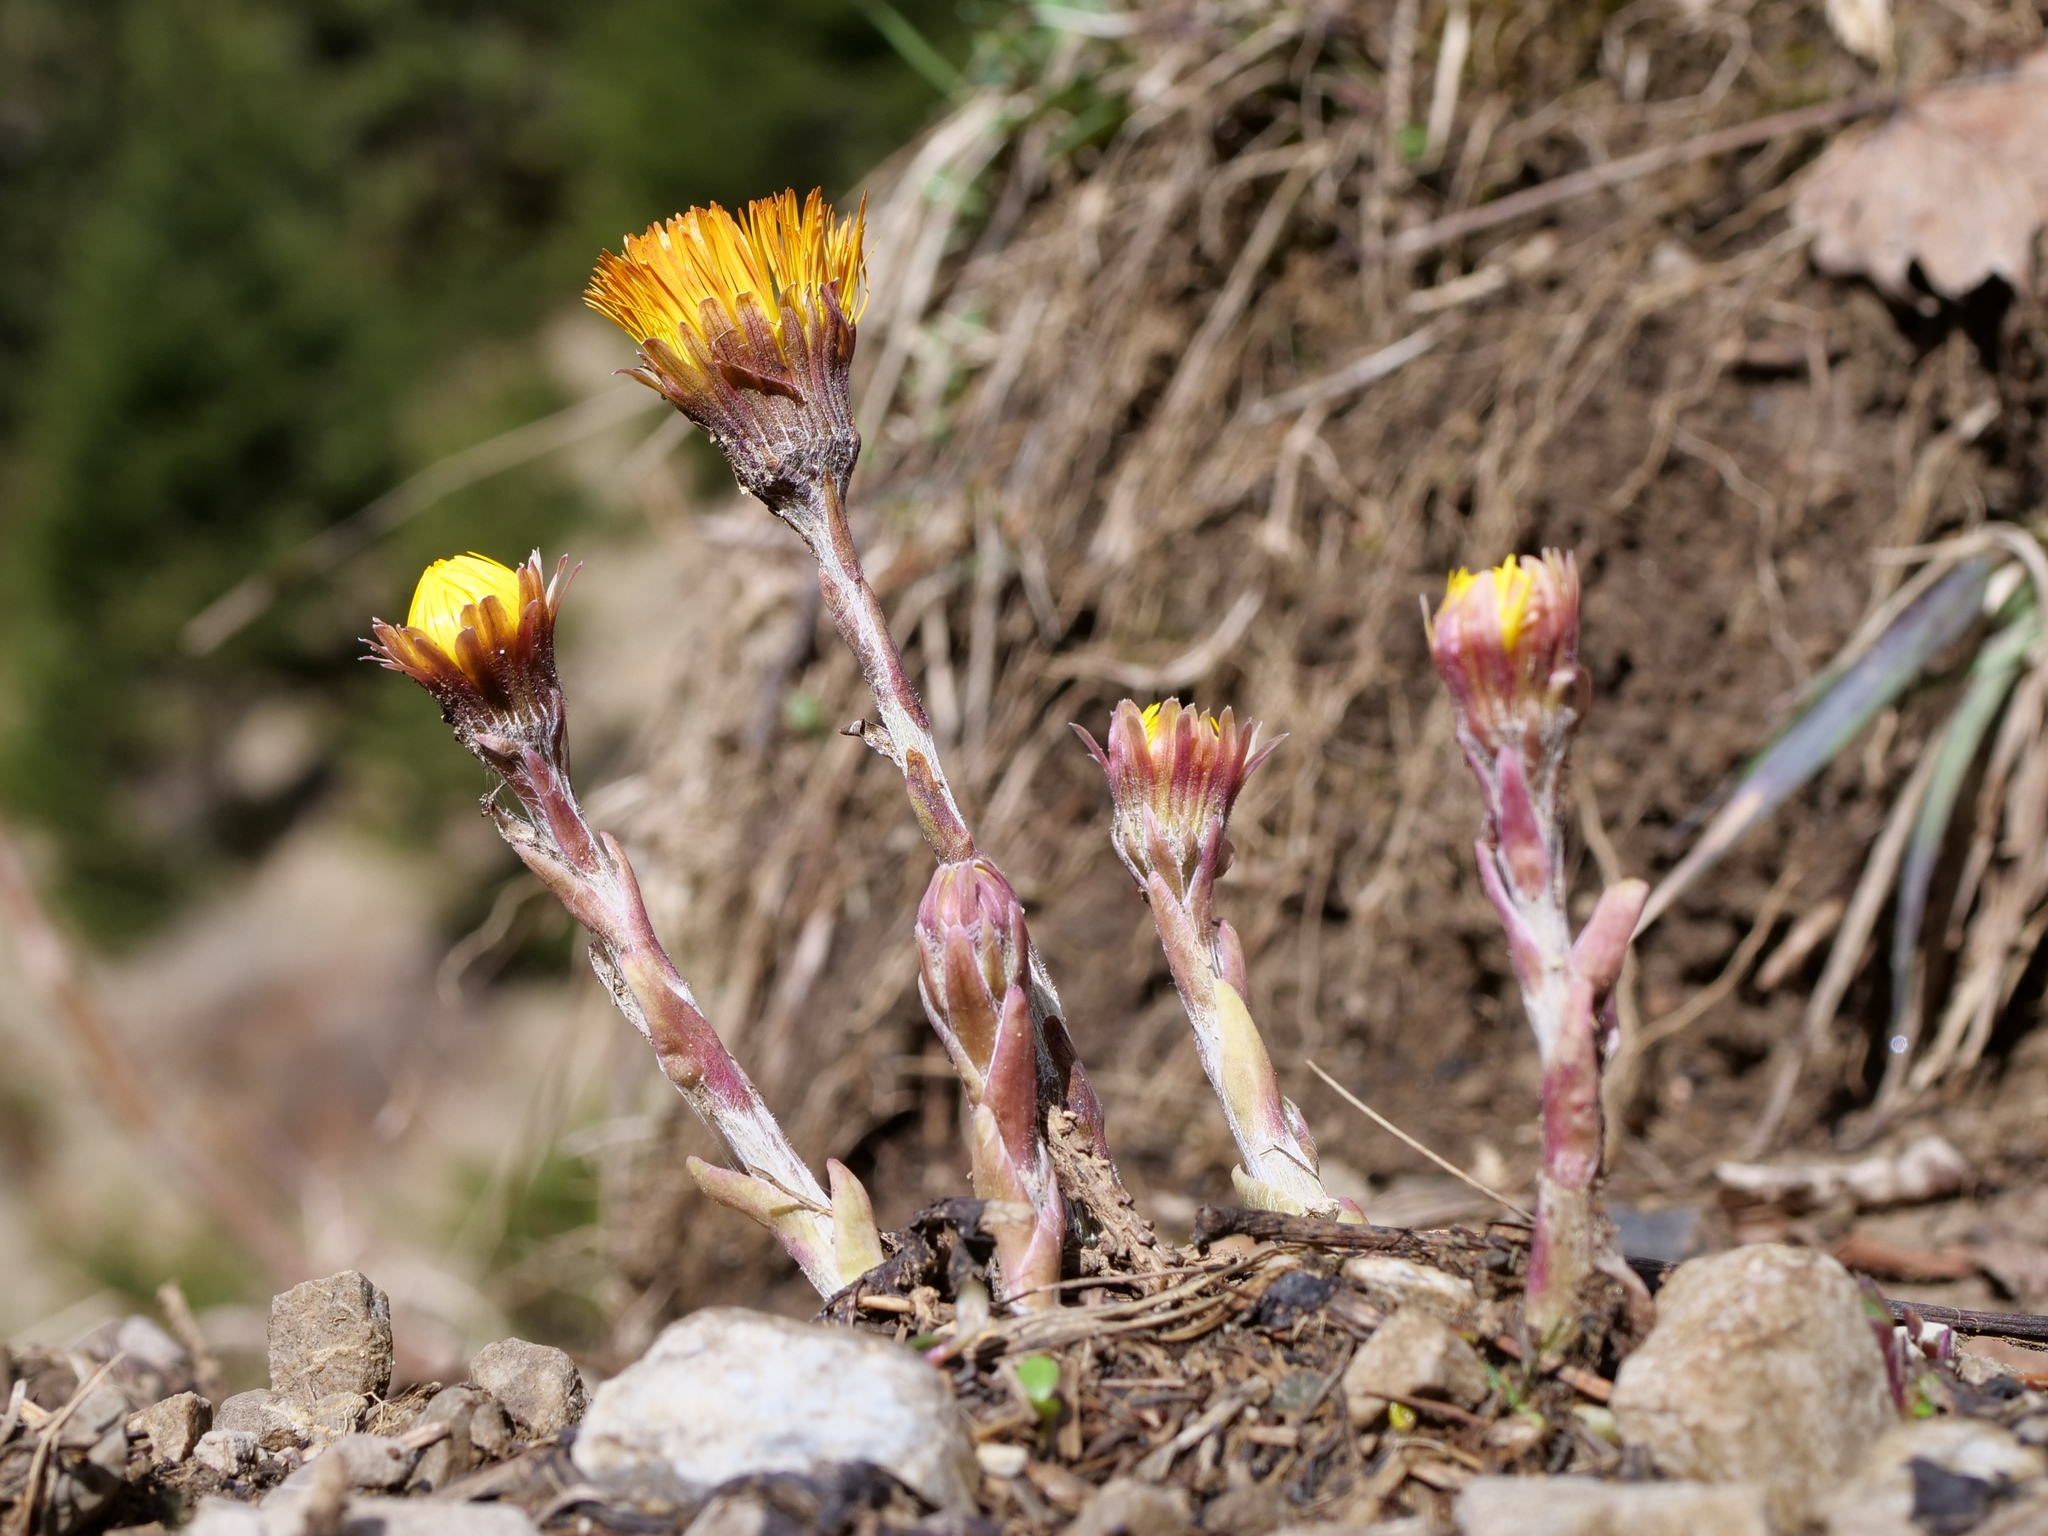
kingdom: Plantae
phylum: Tracheophyta
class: Magnoliopsida
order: Asterales
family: Asteraceae
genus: Tussilago
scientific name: Tussilago farfara
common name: Coltsfoot
